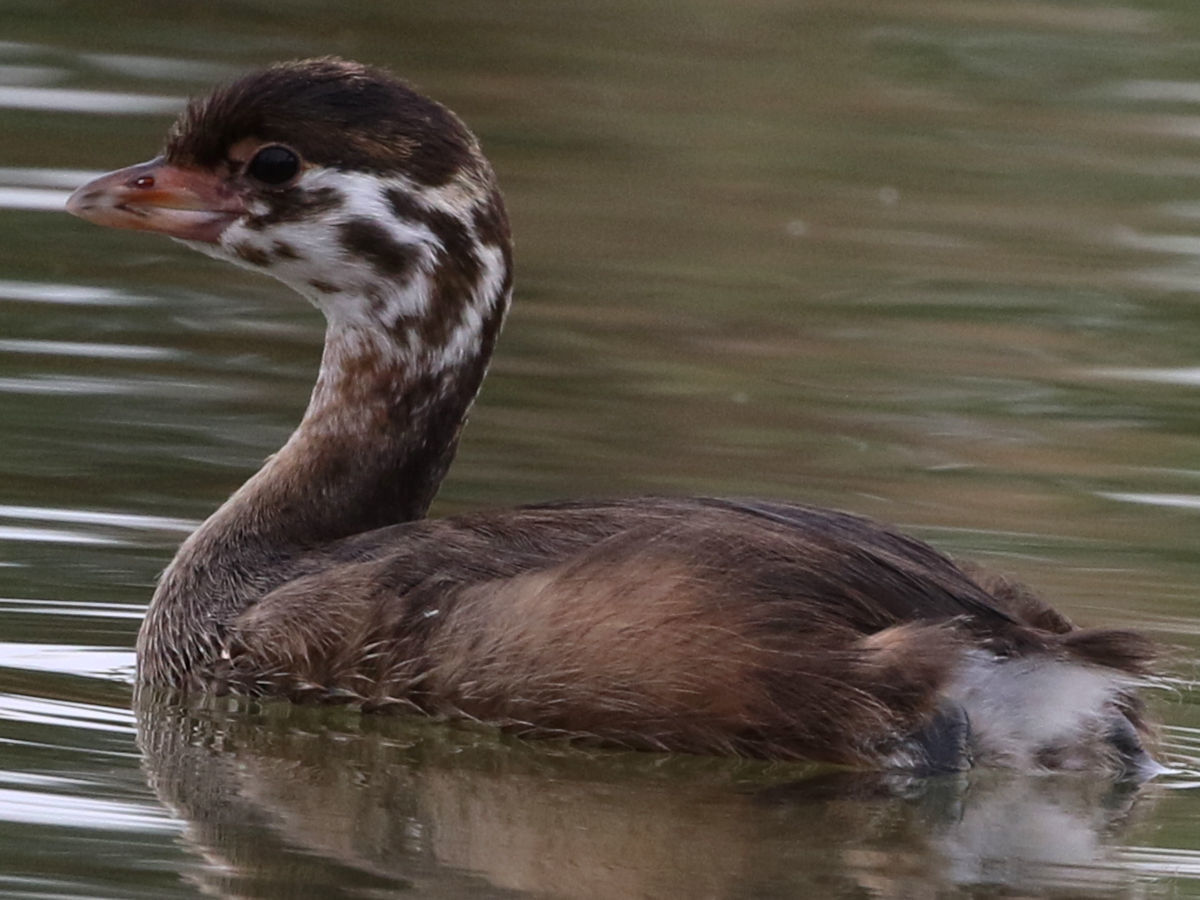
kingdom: Animalia
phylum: Chordata
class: Aves
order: Podicipediformes
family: Podicipedidae
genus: Podilymbus
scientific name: Podilymbus podiceps
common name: Pied-billed grebe
